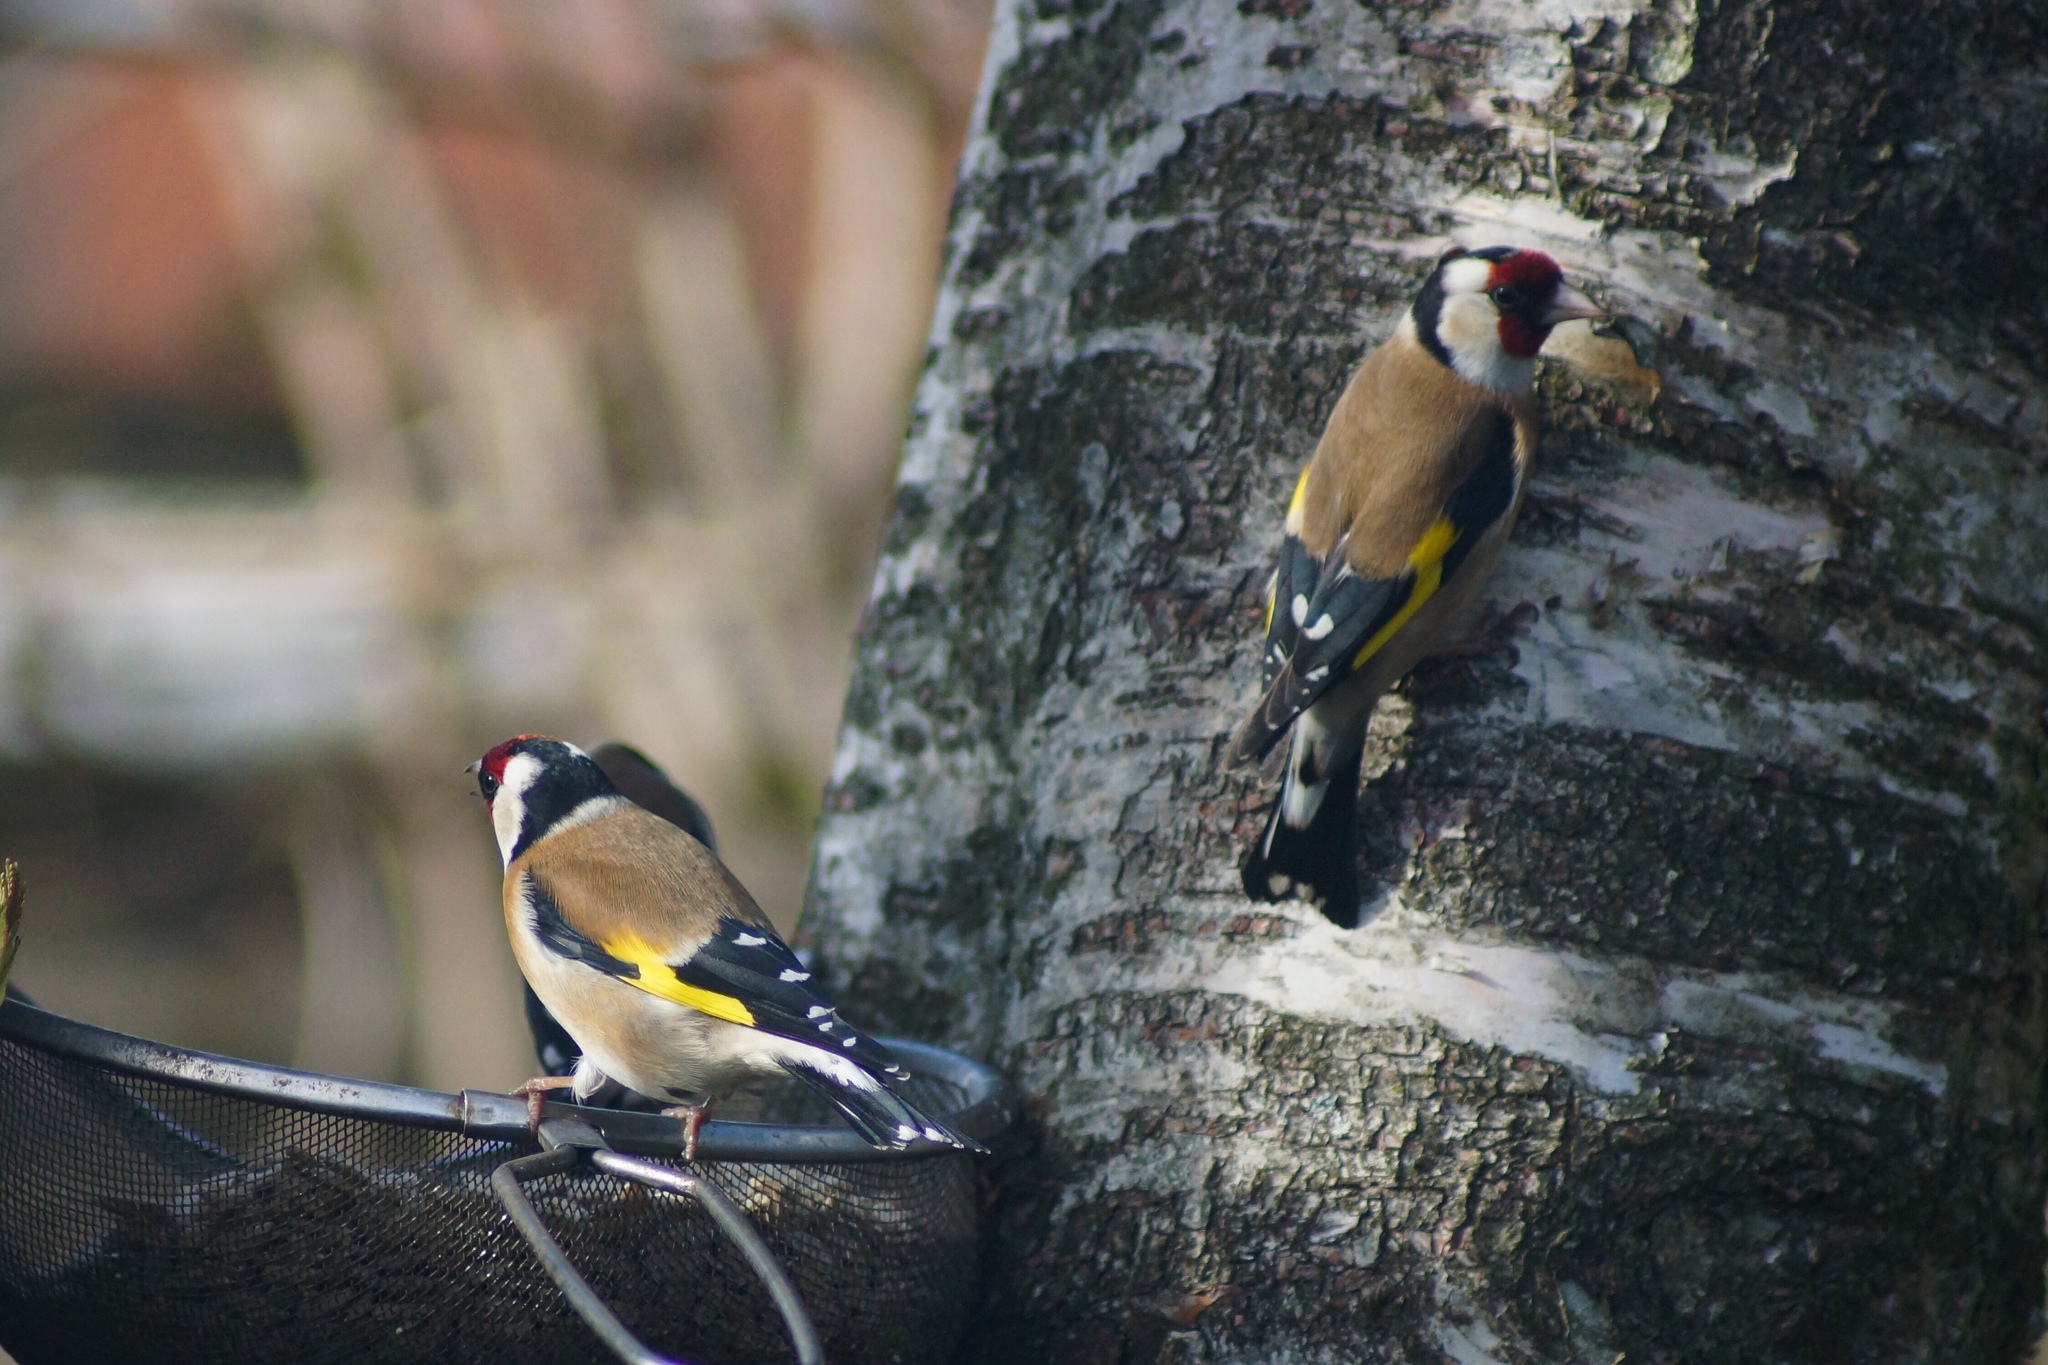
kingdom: Animalia
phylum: Chordata
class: Aves
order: Passeriformes
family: Fringillidae
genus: Carduelis
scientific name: Carduelis carduelis
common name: European goldfinch
